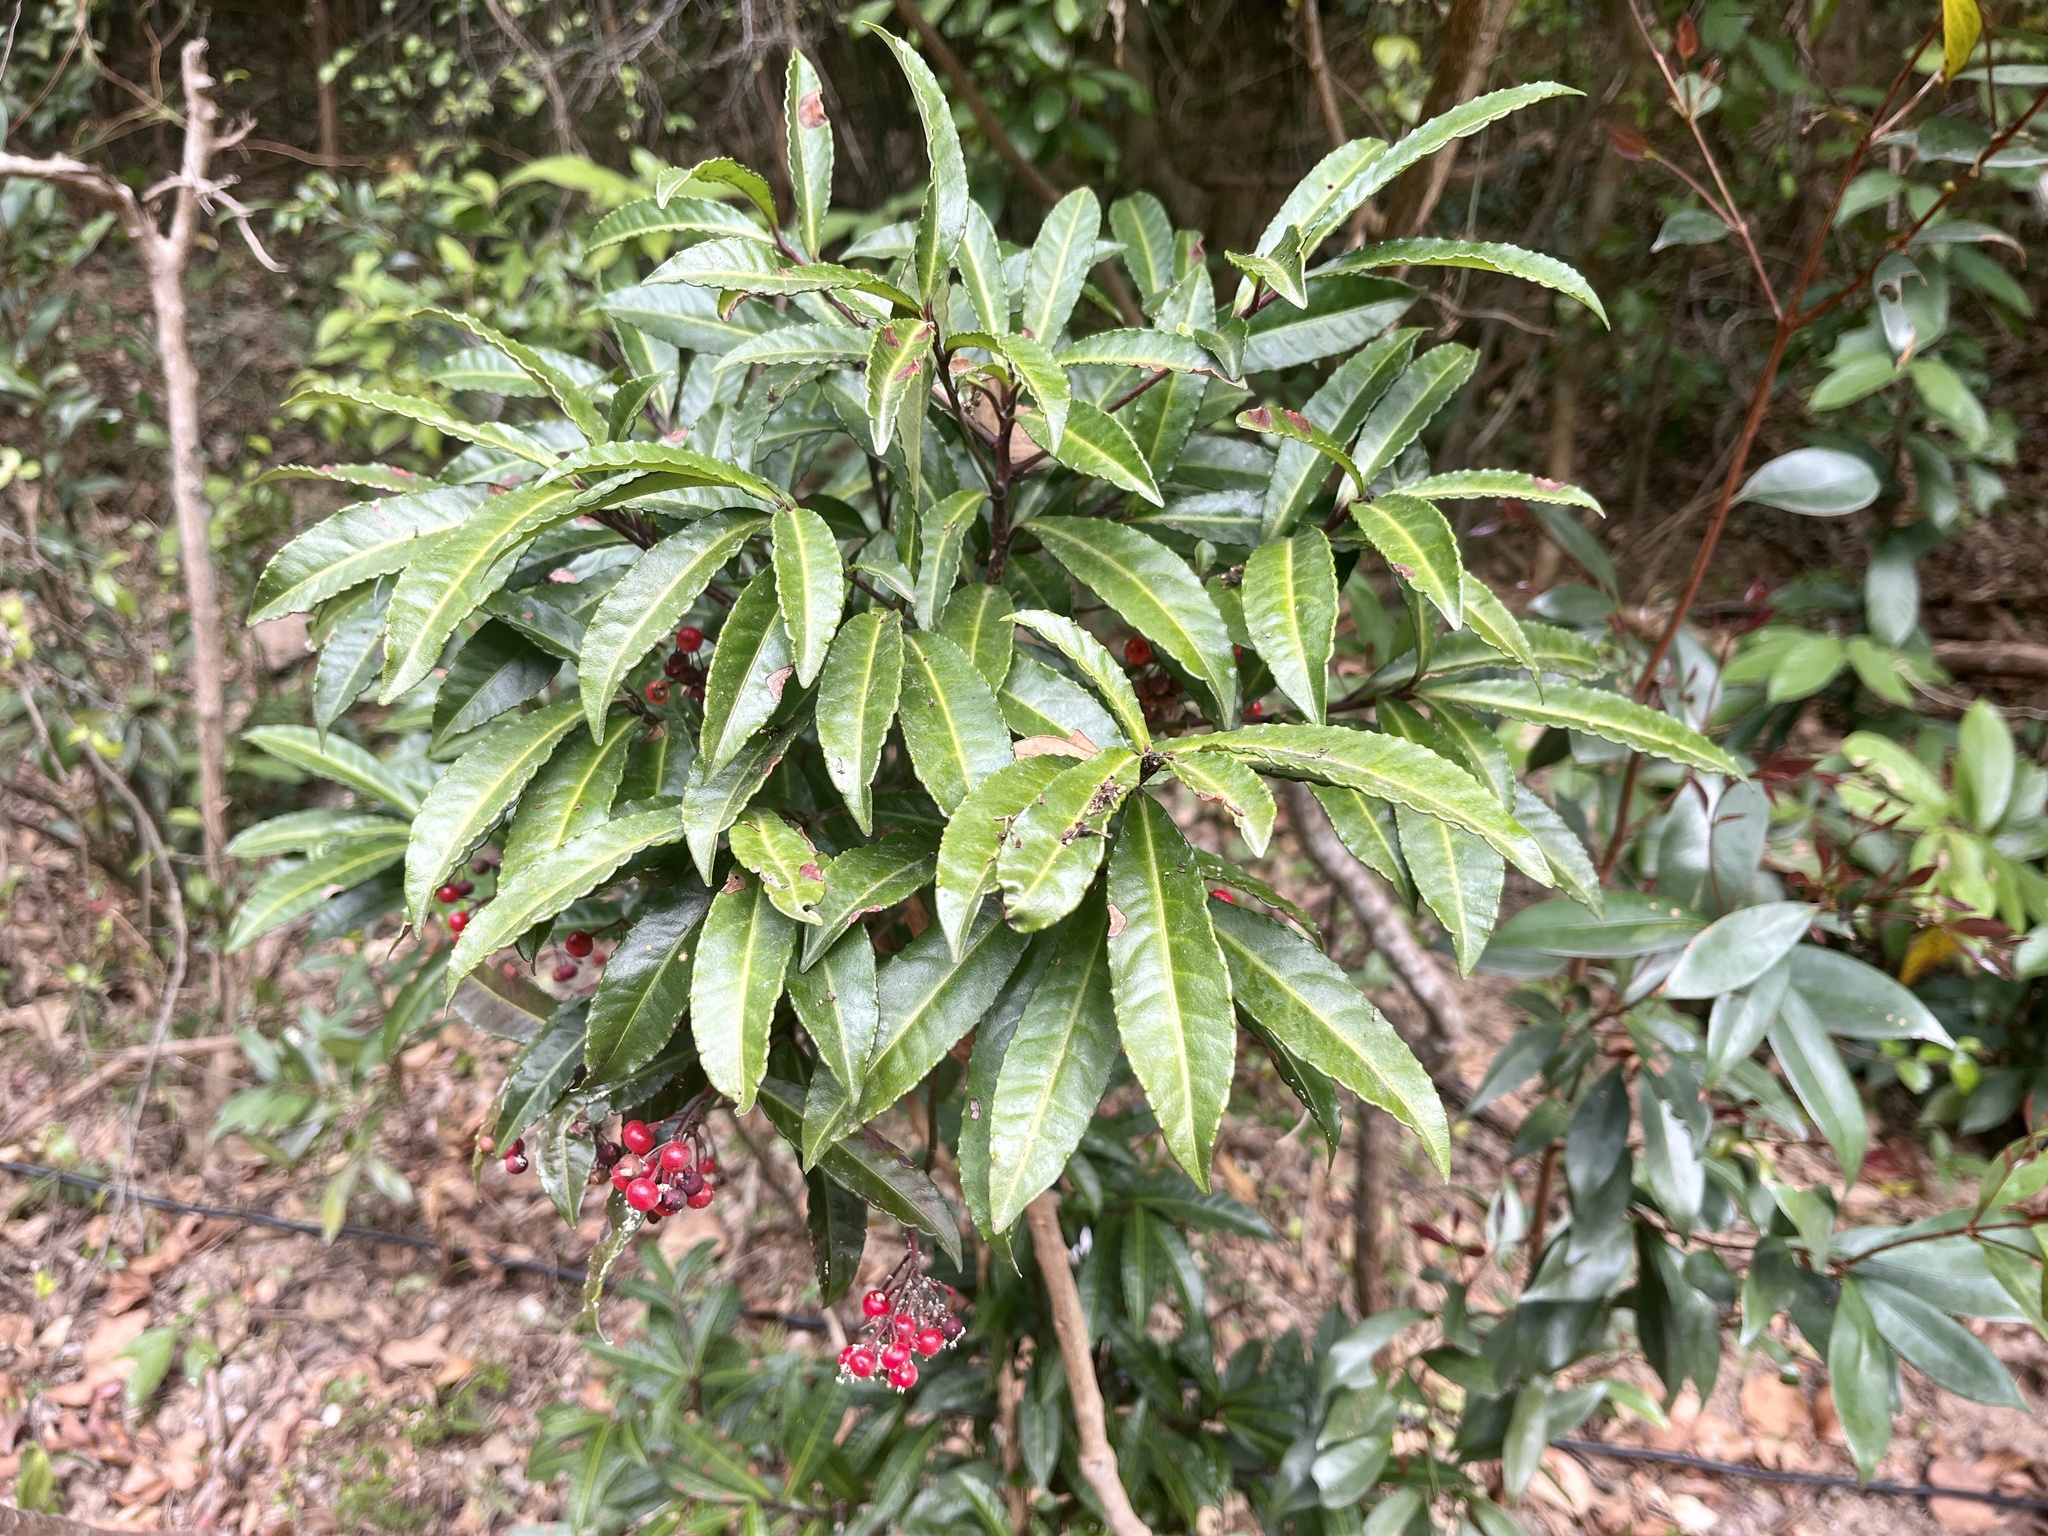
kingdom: Plantae
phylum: Tracheophyta
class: Magnoliopsida
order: Ericales
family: Primulaceae
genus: Ardisia
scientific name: Ardisia crenata
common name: Hen's eyes
